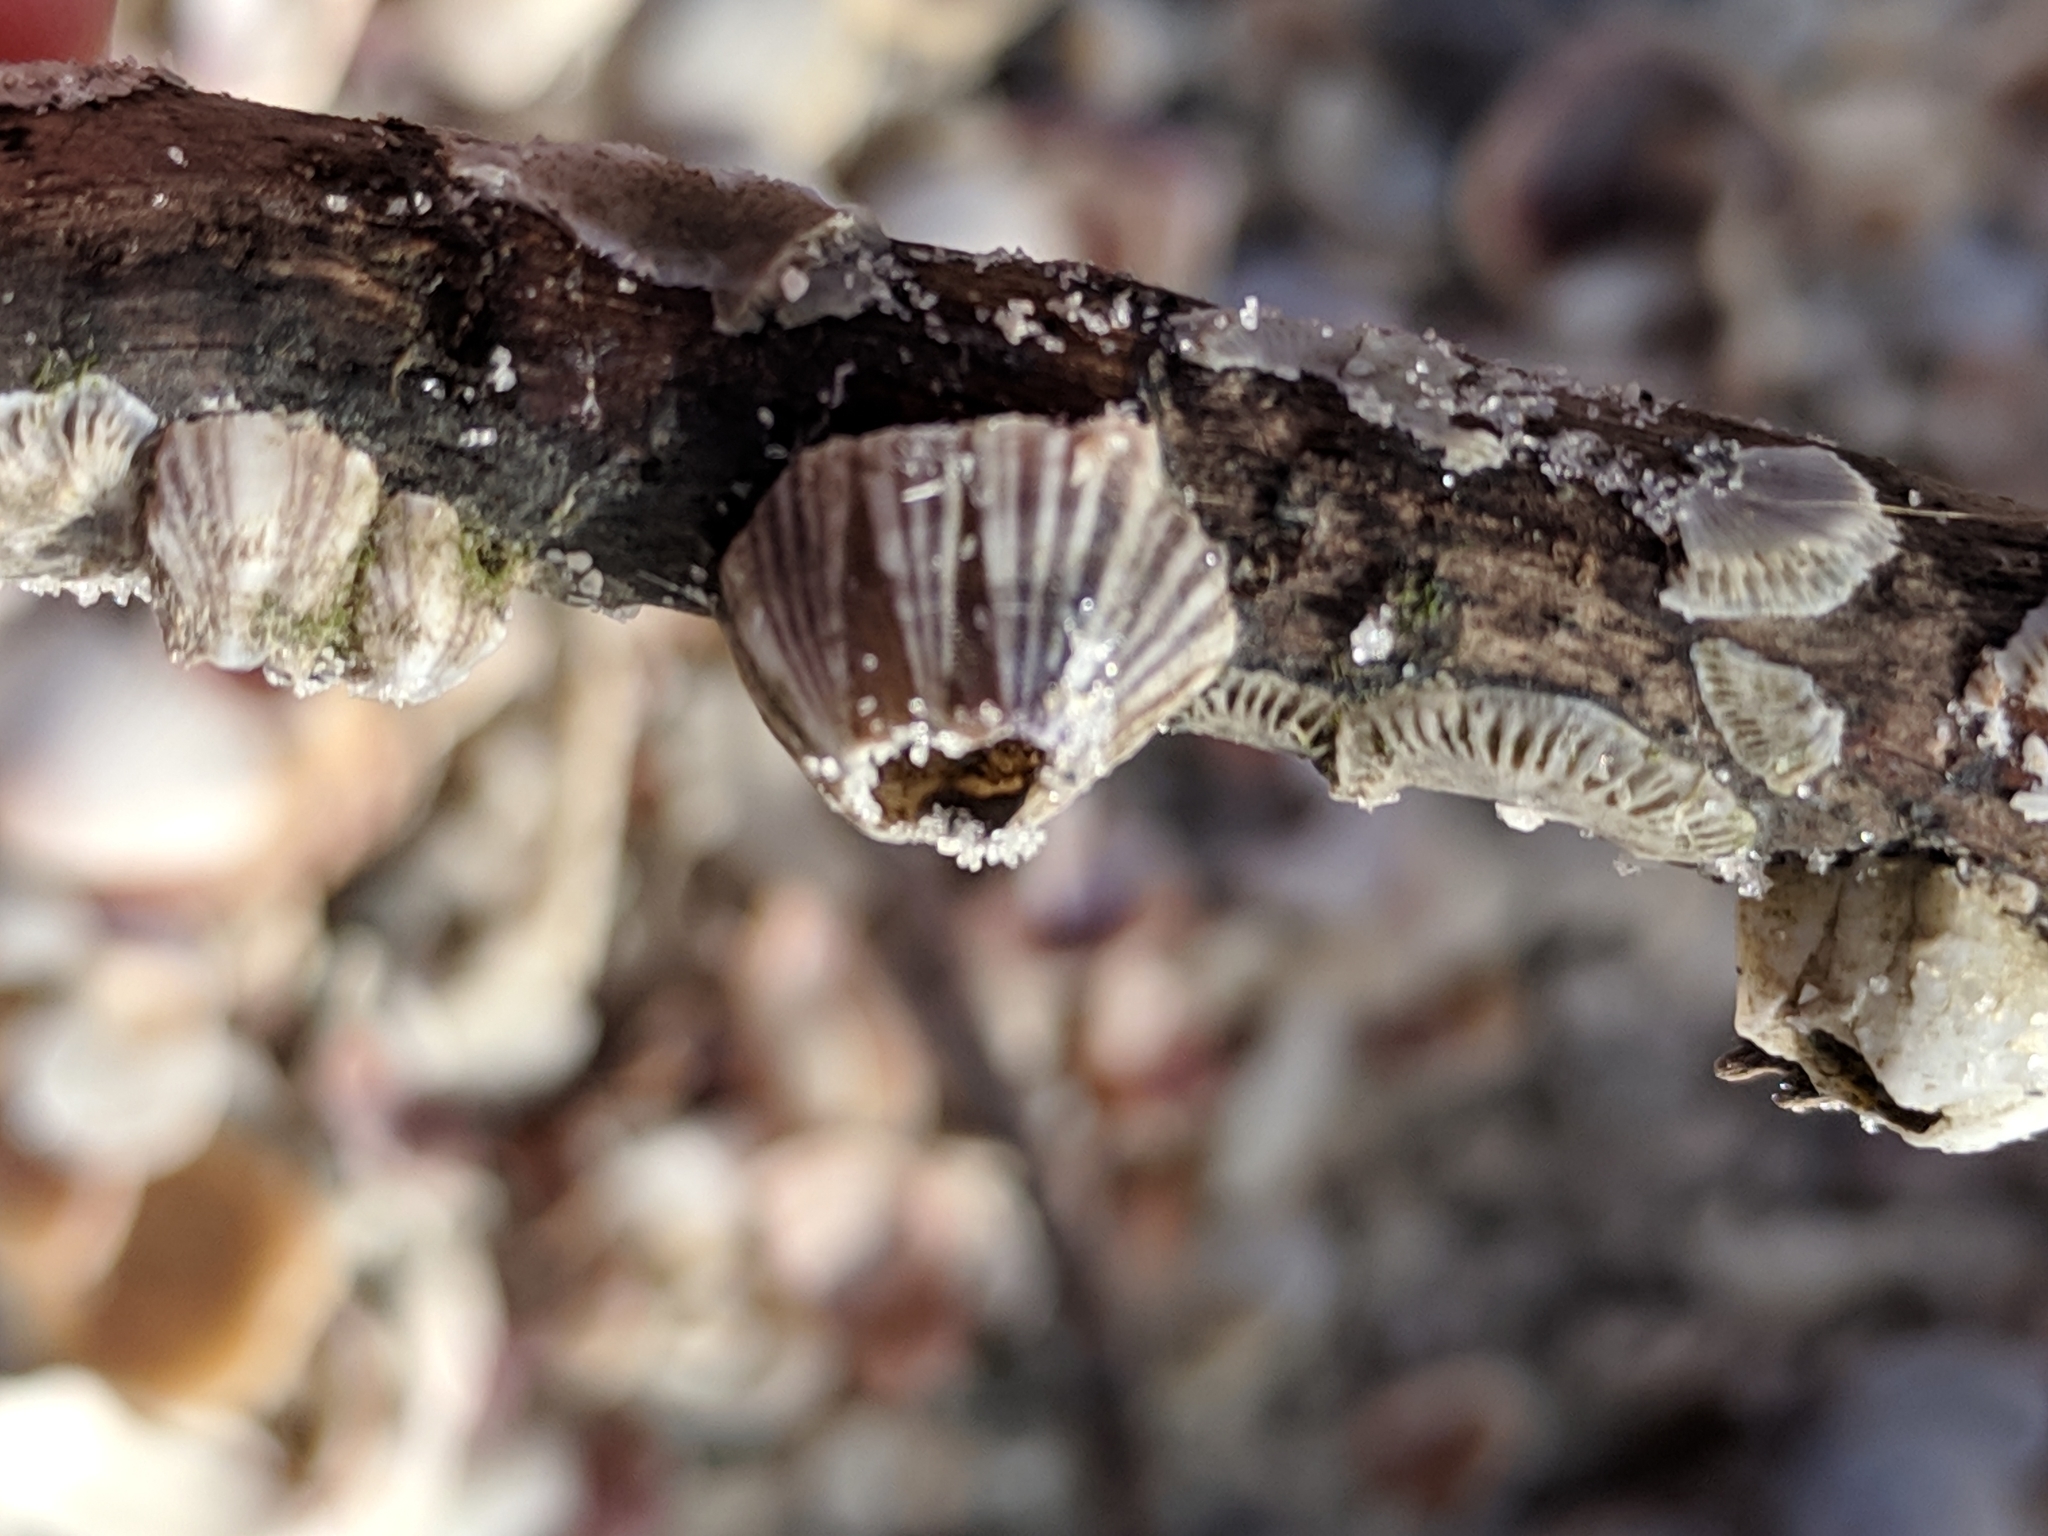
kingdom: Animalia
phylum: Arthropoda
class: Maxillopoda
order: Sessilia
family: Balanidae
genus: Amphibalanus
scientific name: Amphibalanus amphitrite
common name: Striped acorn barnacle
